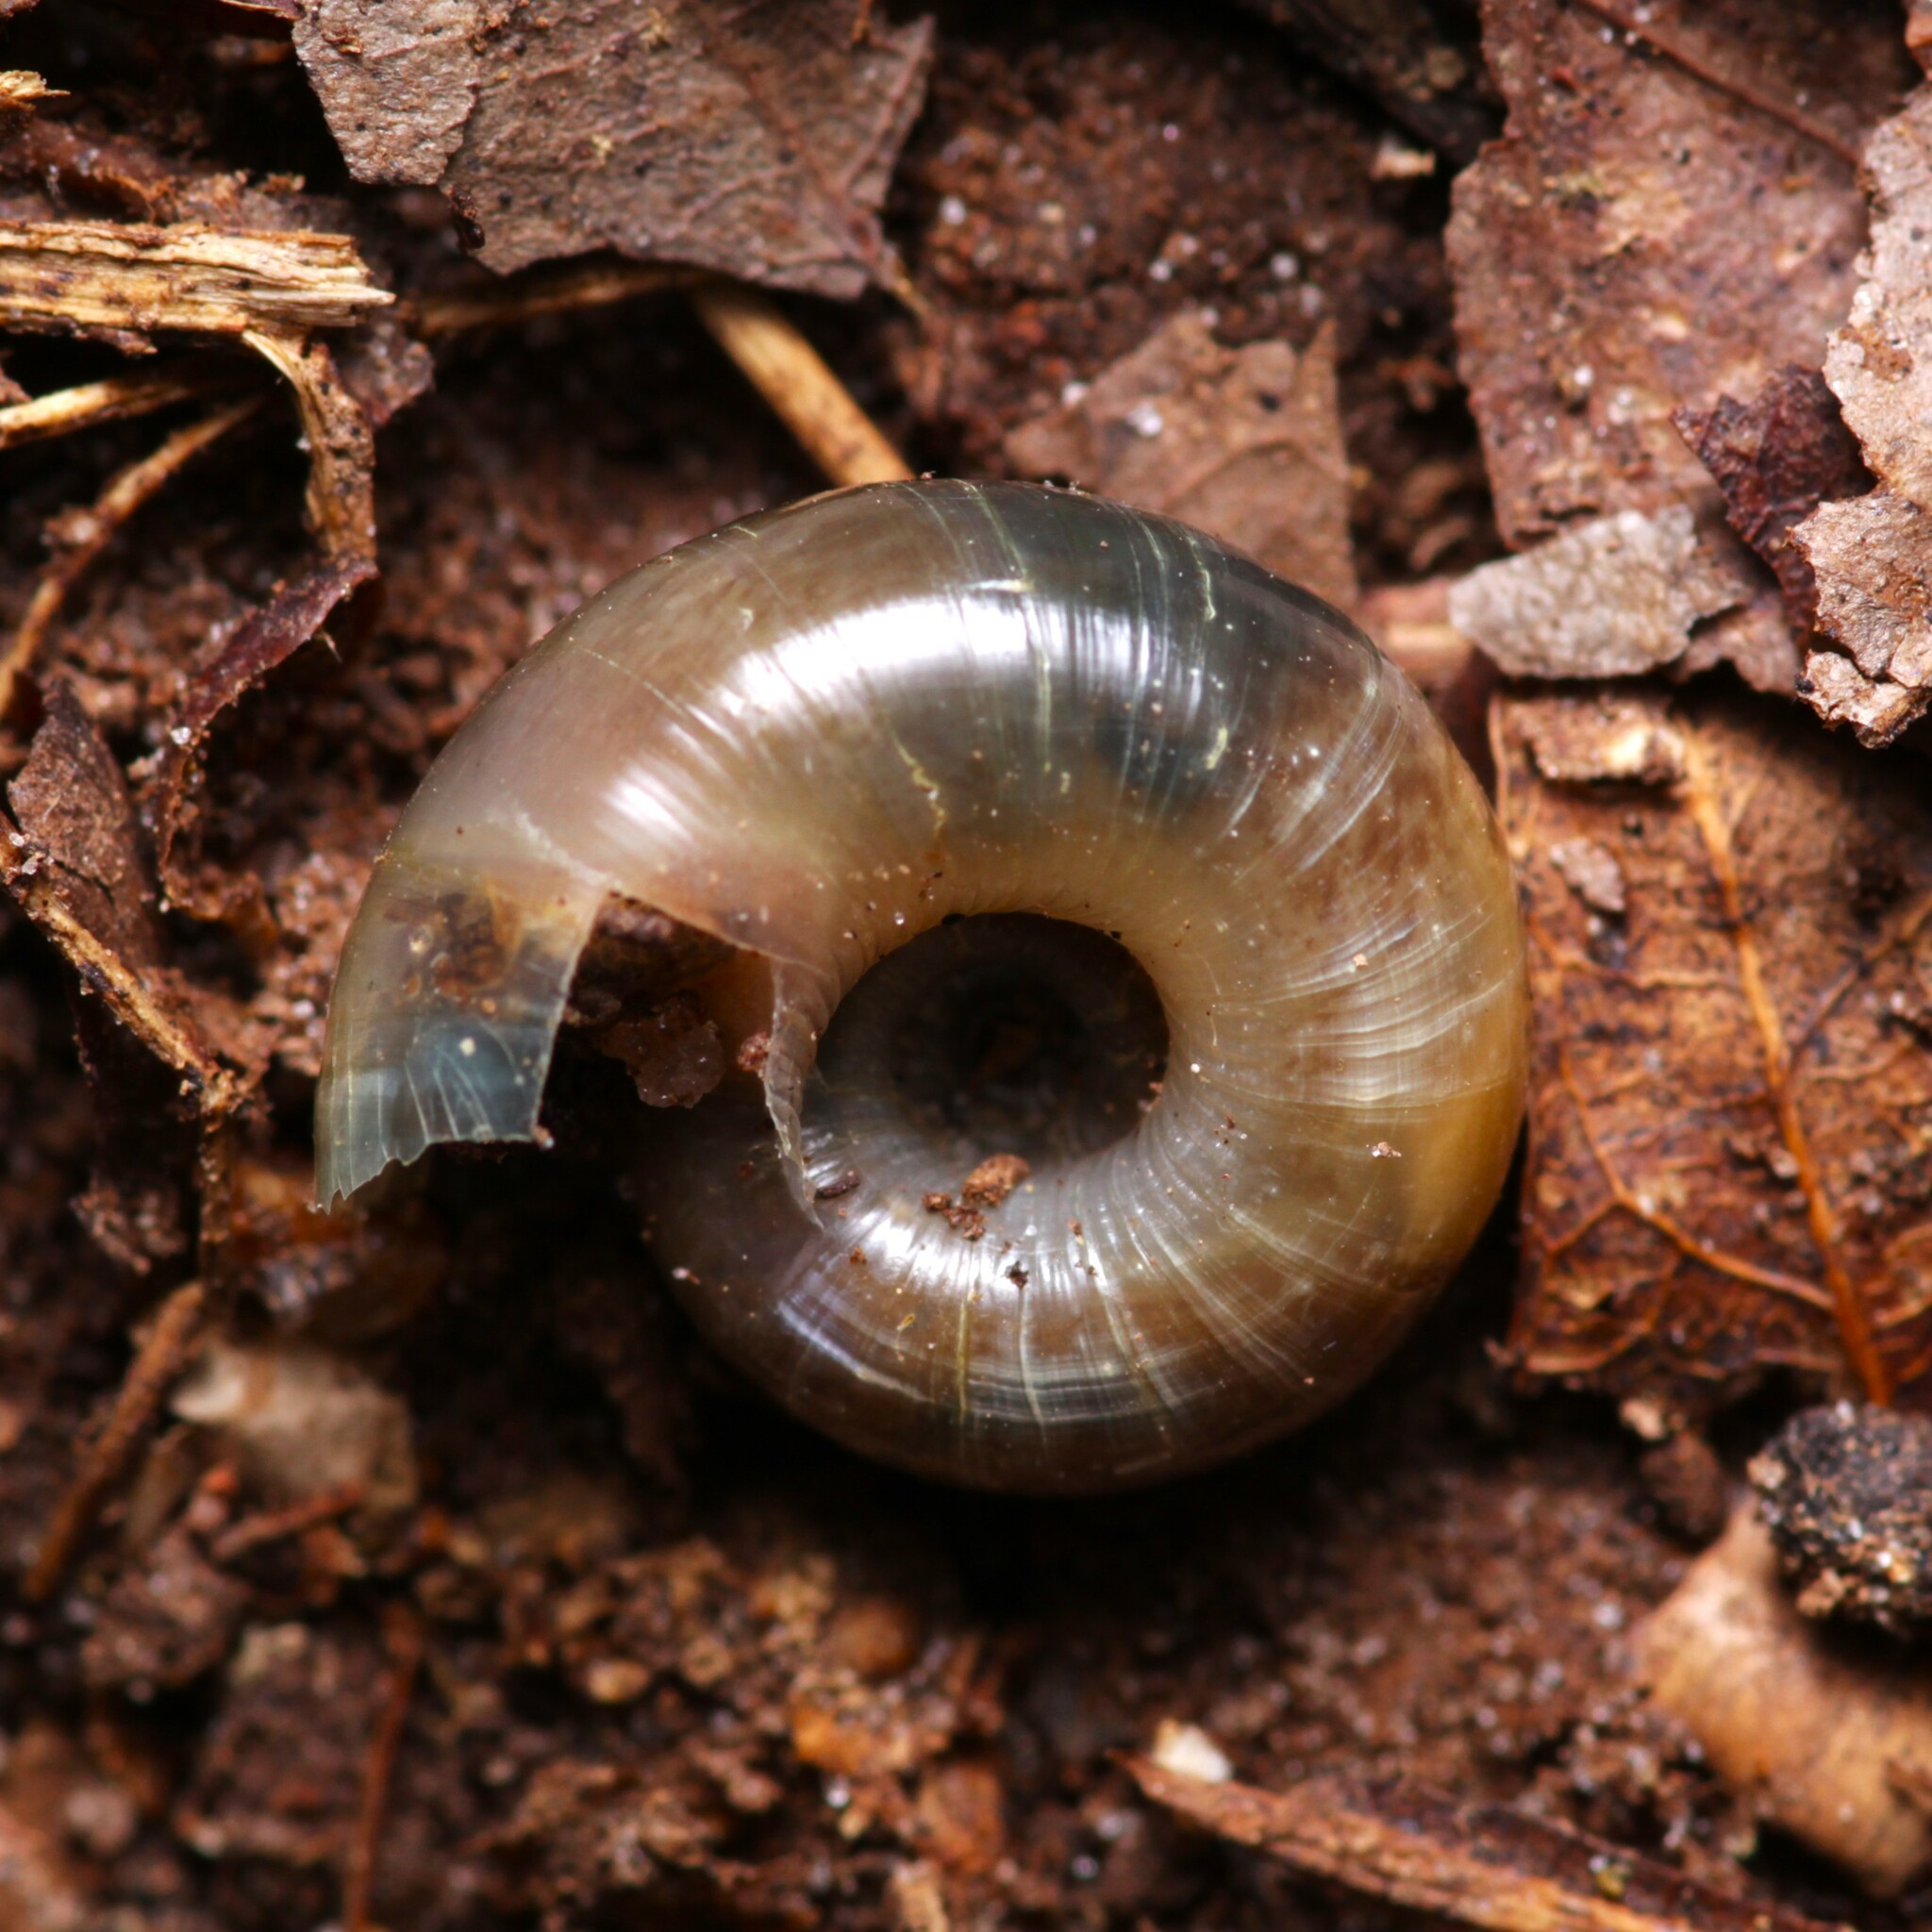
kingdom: Animalia
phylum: Mollusca
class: Gastropoda
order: Stylommatophora
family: Haplotrematidae
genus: Haplotrema
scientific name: Haplotrema concavum
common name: Gray-foot lancetooth
